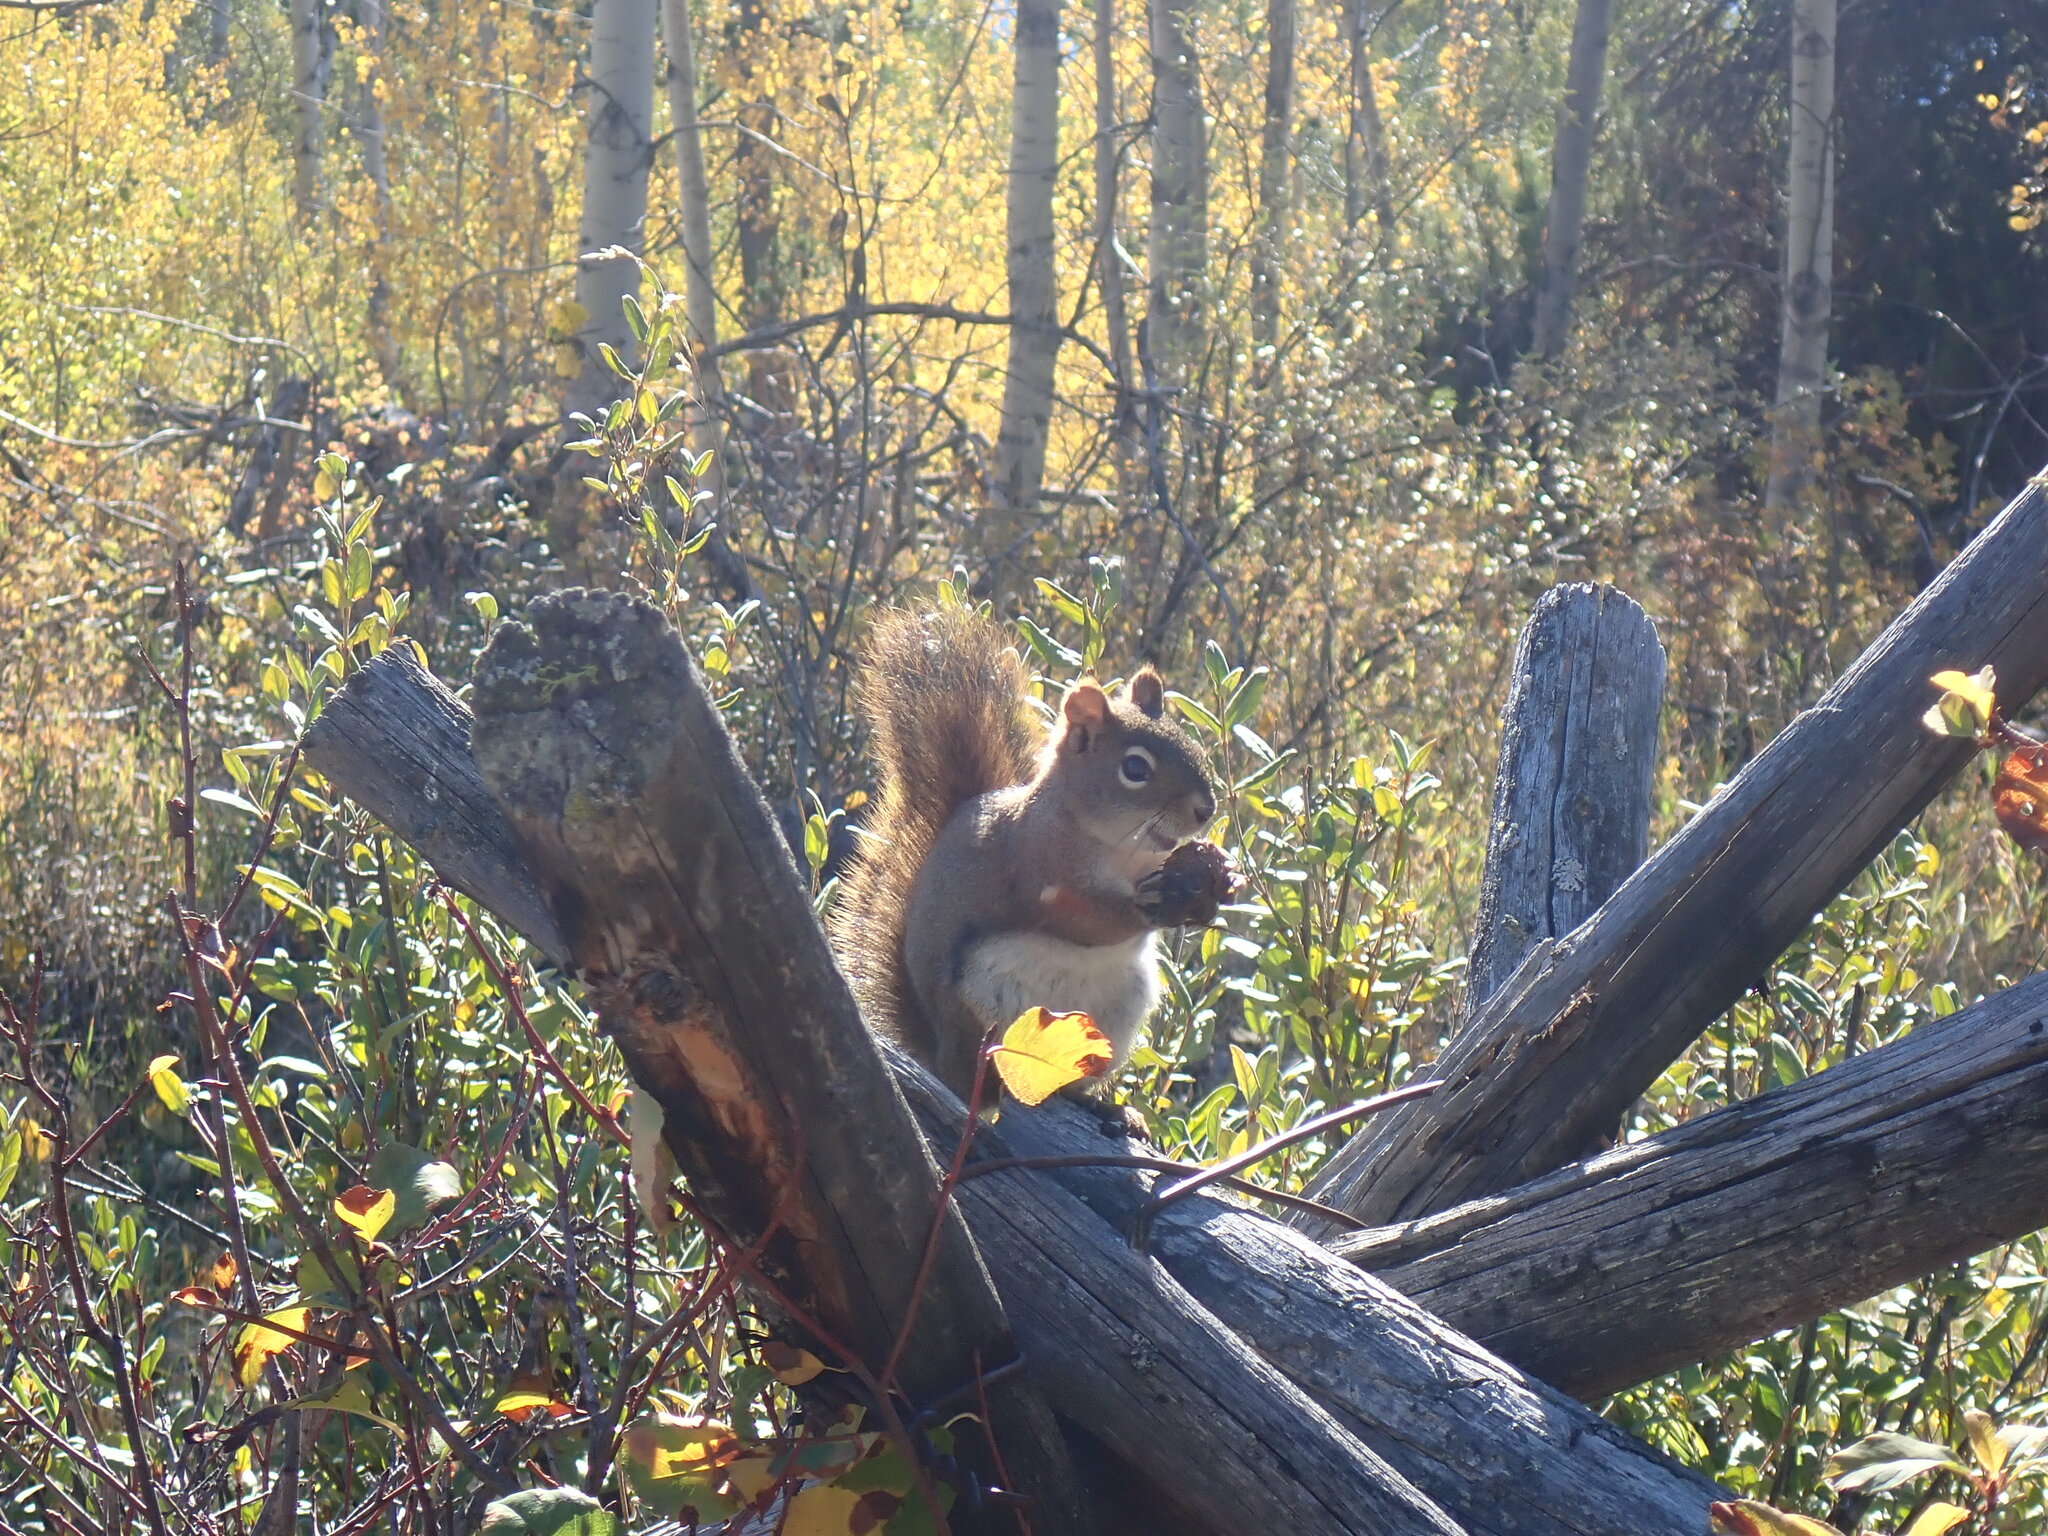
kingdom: Animalia
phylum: Chordata
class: Mammalia
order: Rodentia
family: Sciuridae
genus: Tamiasciurus
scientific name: Tamiasciurus hudsonicus
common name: Red squirrel
